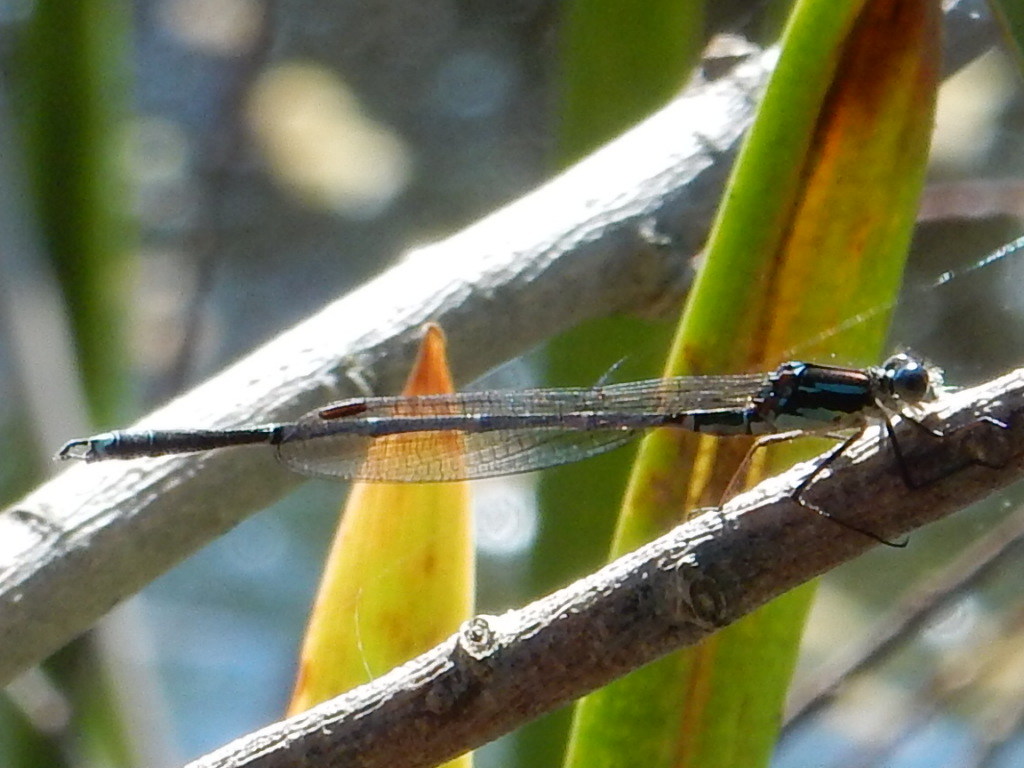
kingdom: Animalia
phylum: Arthropoda
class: Insecta
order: Odonata
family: Lestidae
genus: Austrolestes
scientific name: Austrolestes colensonis
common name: Blue damselfly
